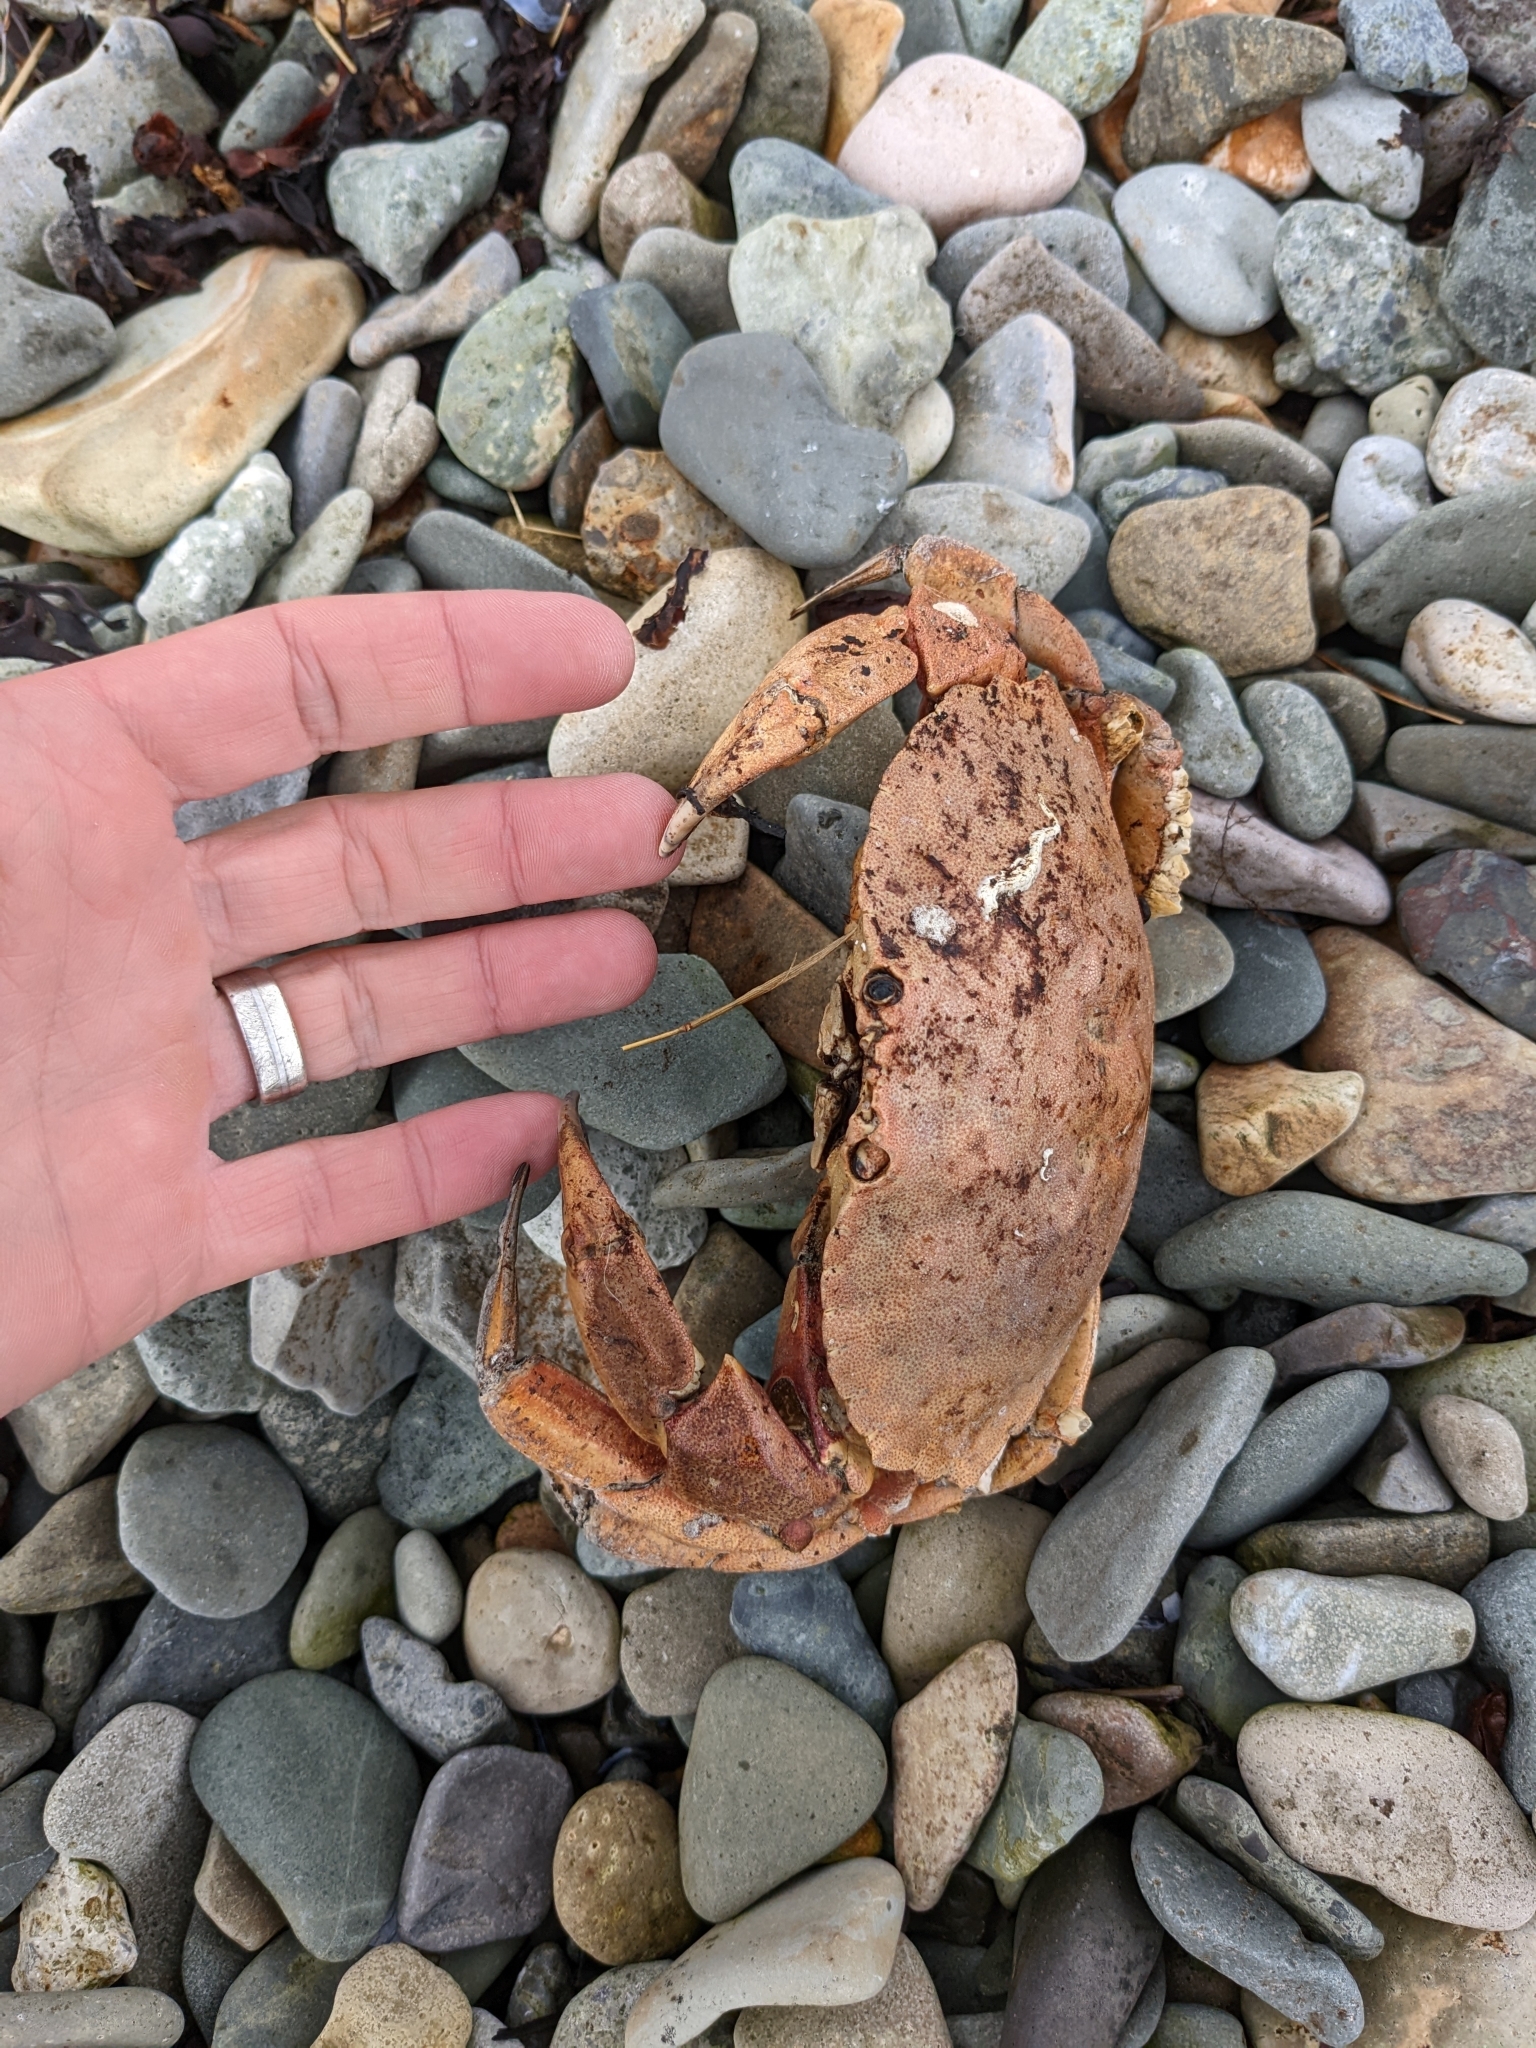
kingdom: Animalia
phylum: Arthropoda
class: Malacostraca
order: Decapoda
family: Cancridae
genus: Cancer
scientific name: Cancer irroratus
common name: Atlantic rock crab
